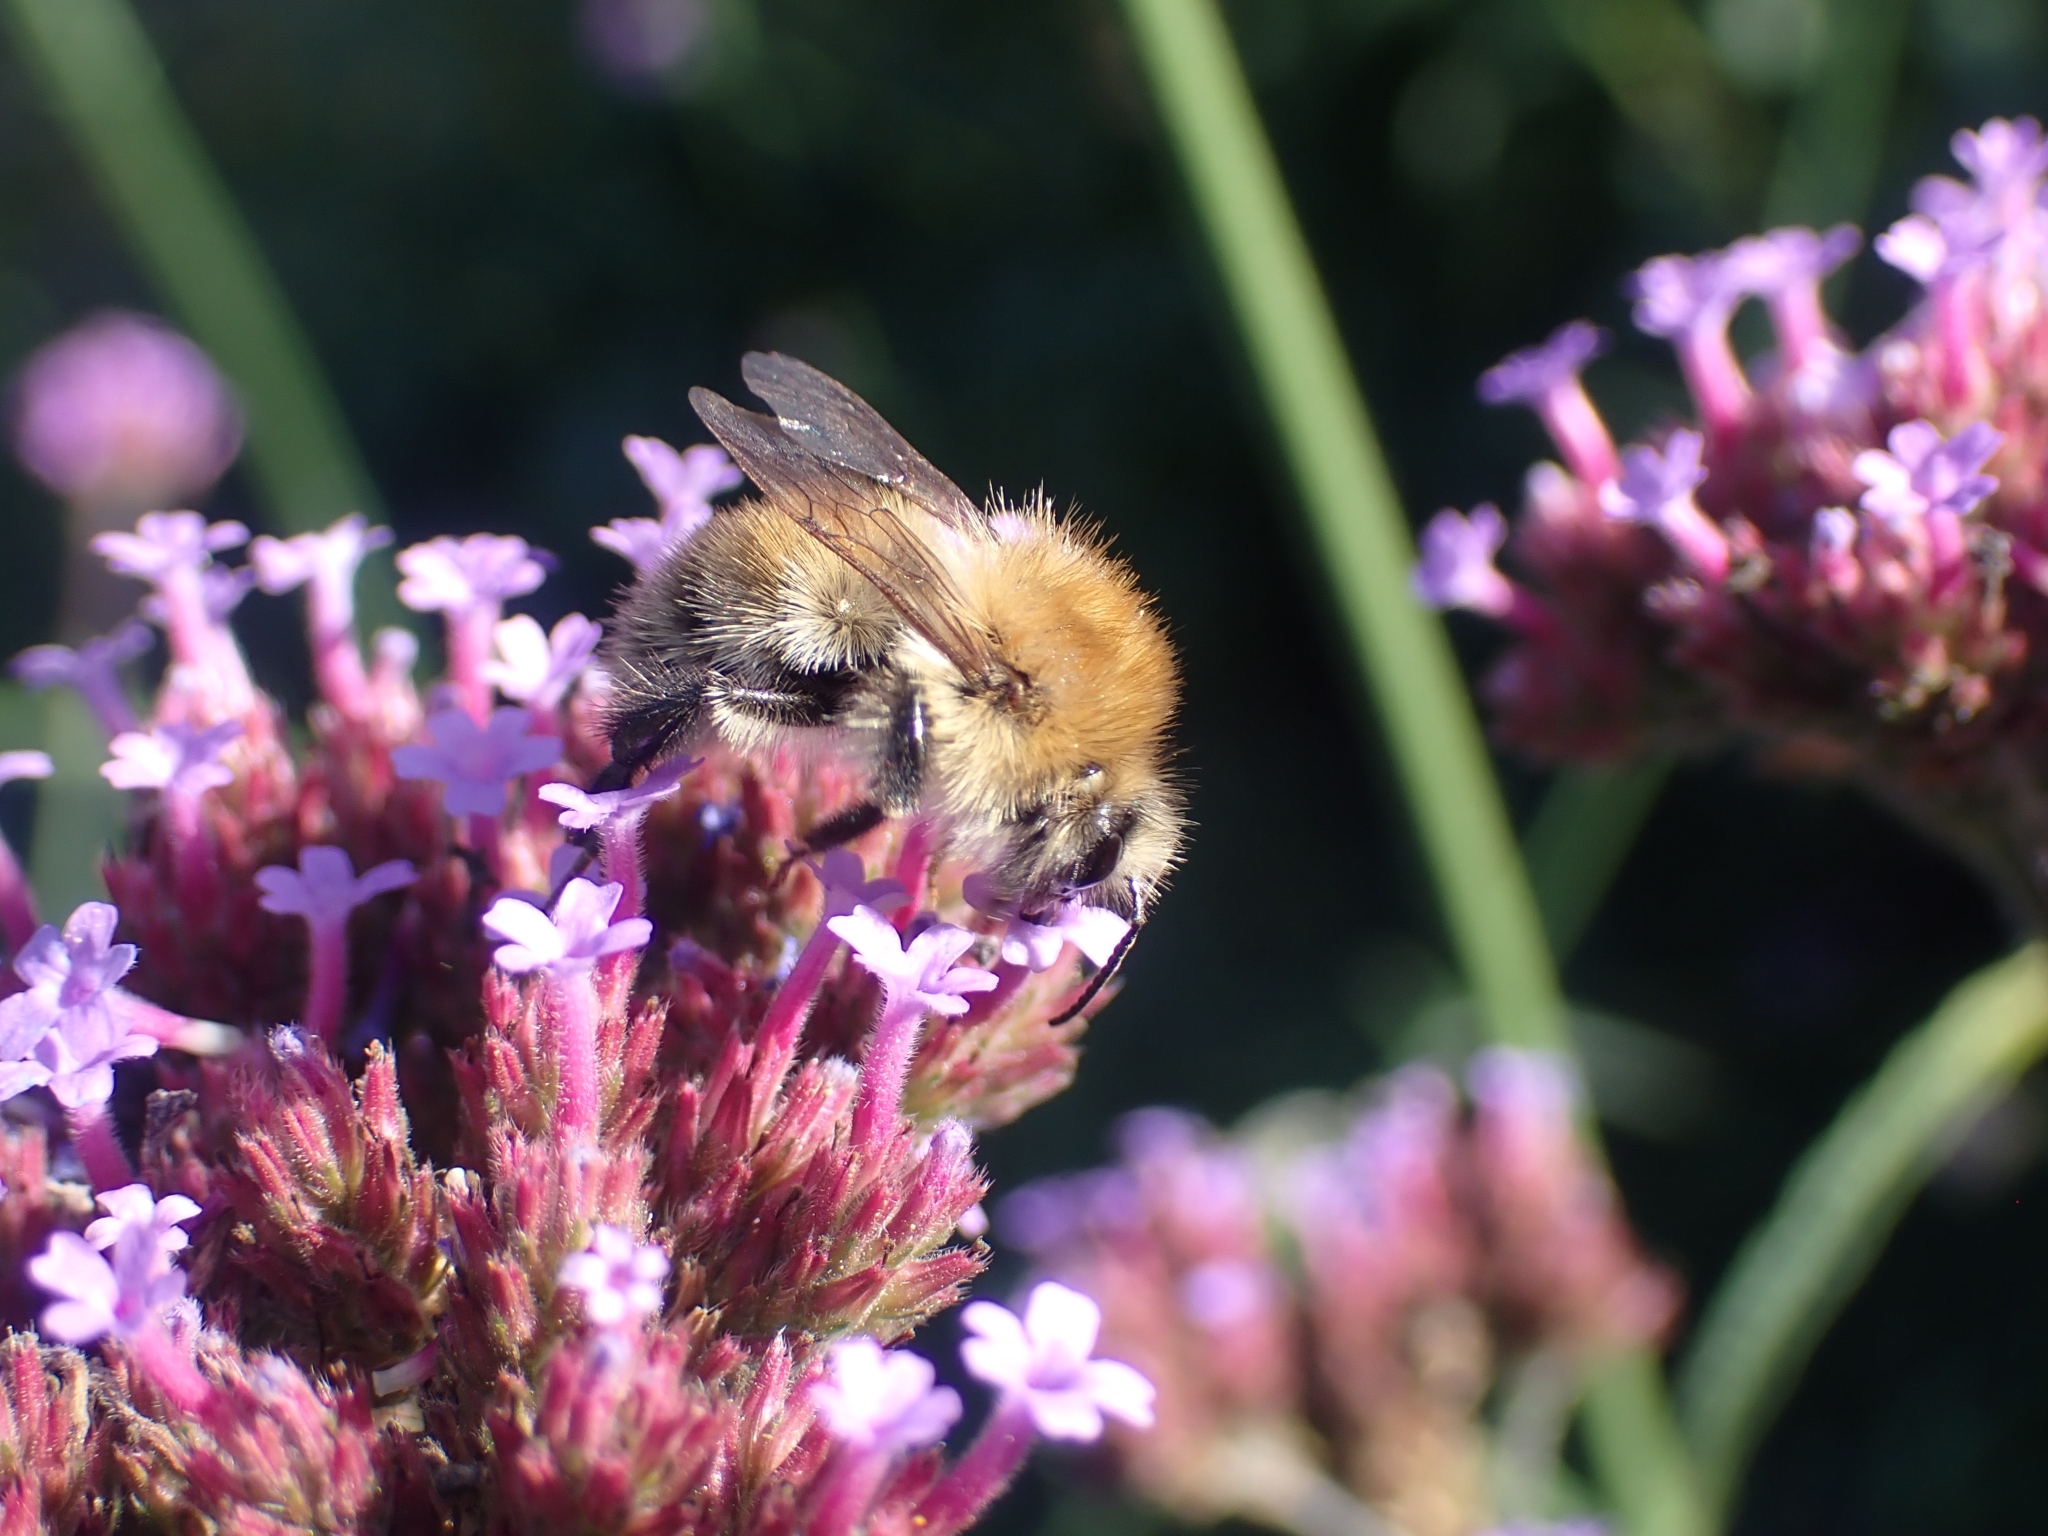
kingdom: Animalia
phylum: Arthropoda
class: Insecta
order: Hymenoptera
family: Apidae
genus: Bombus
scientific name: Bombus pascuorum
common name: Common carder bee
